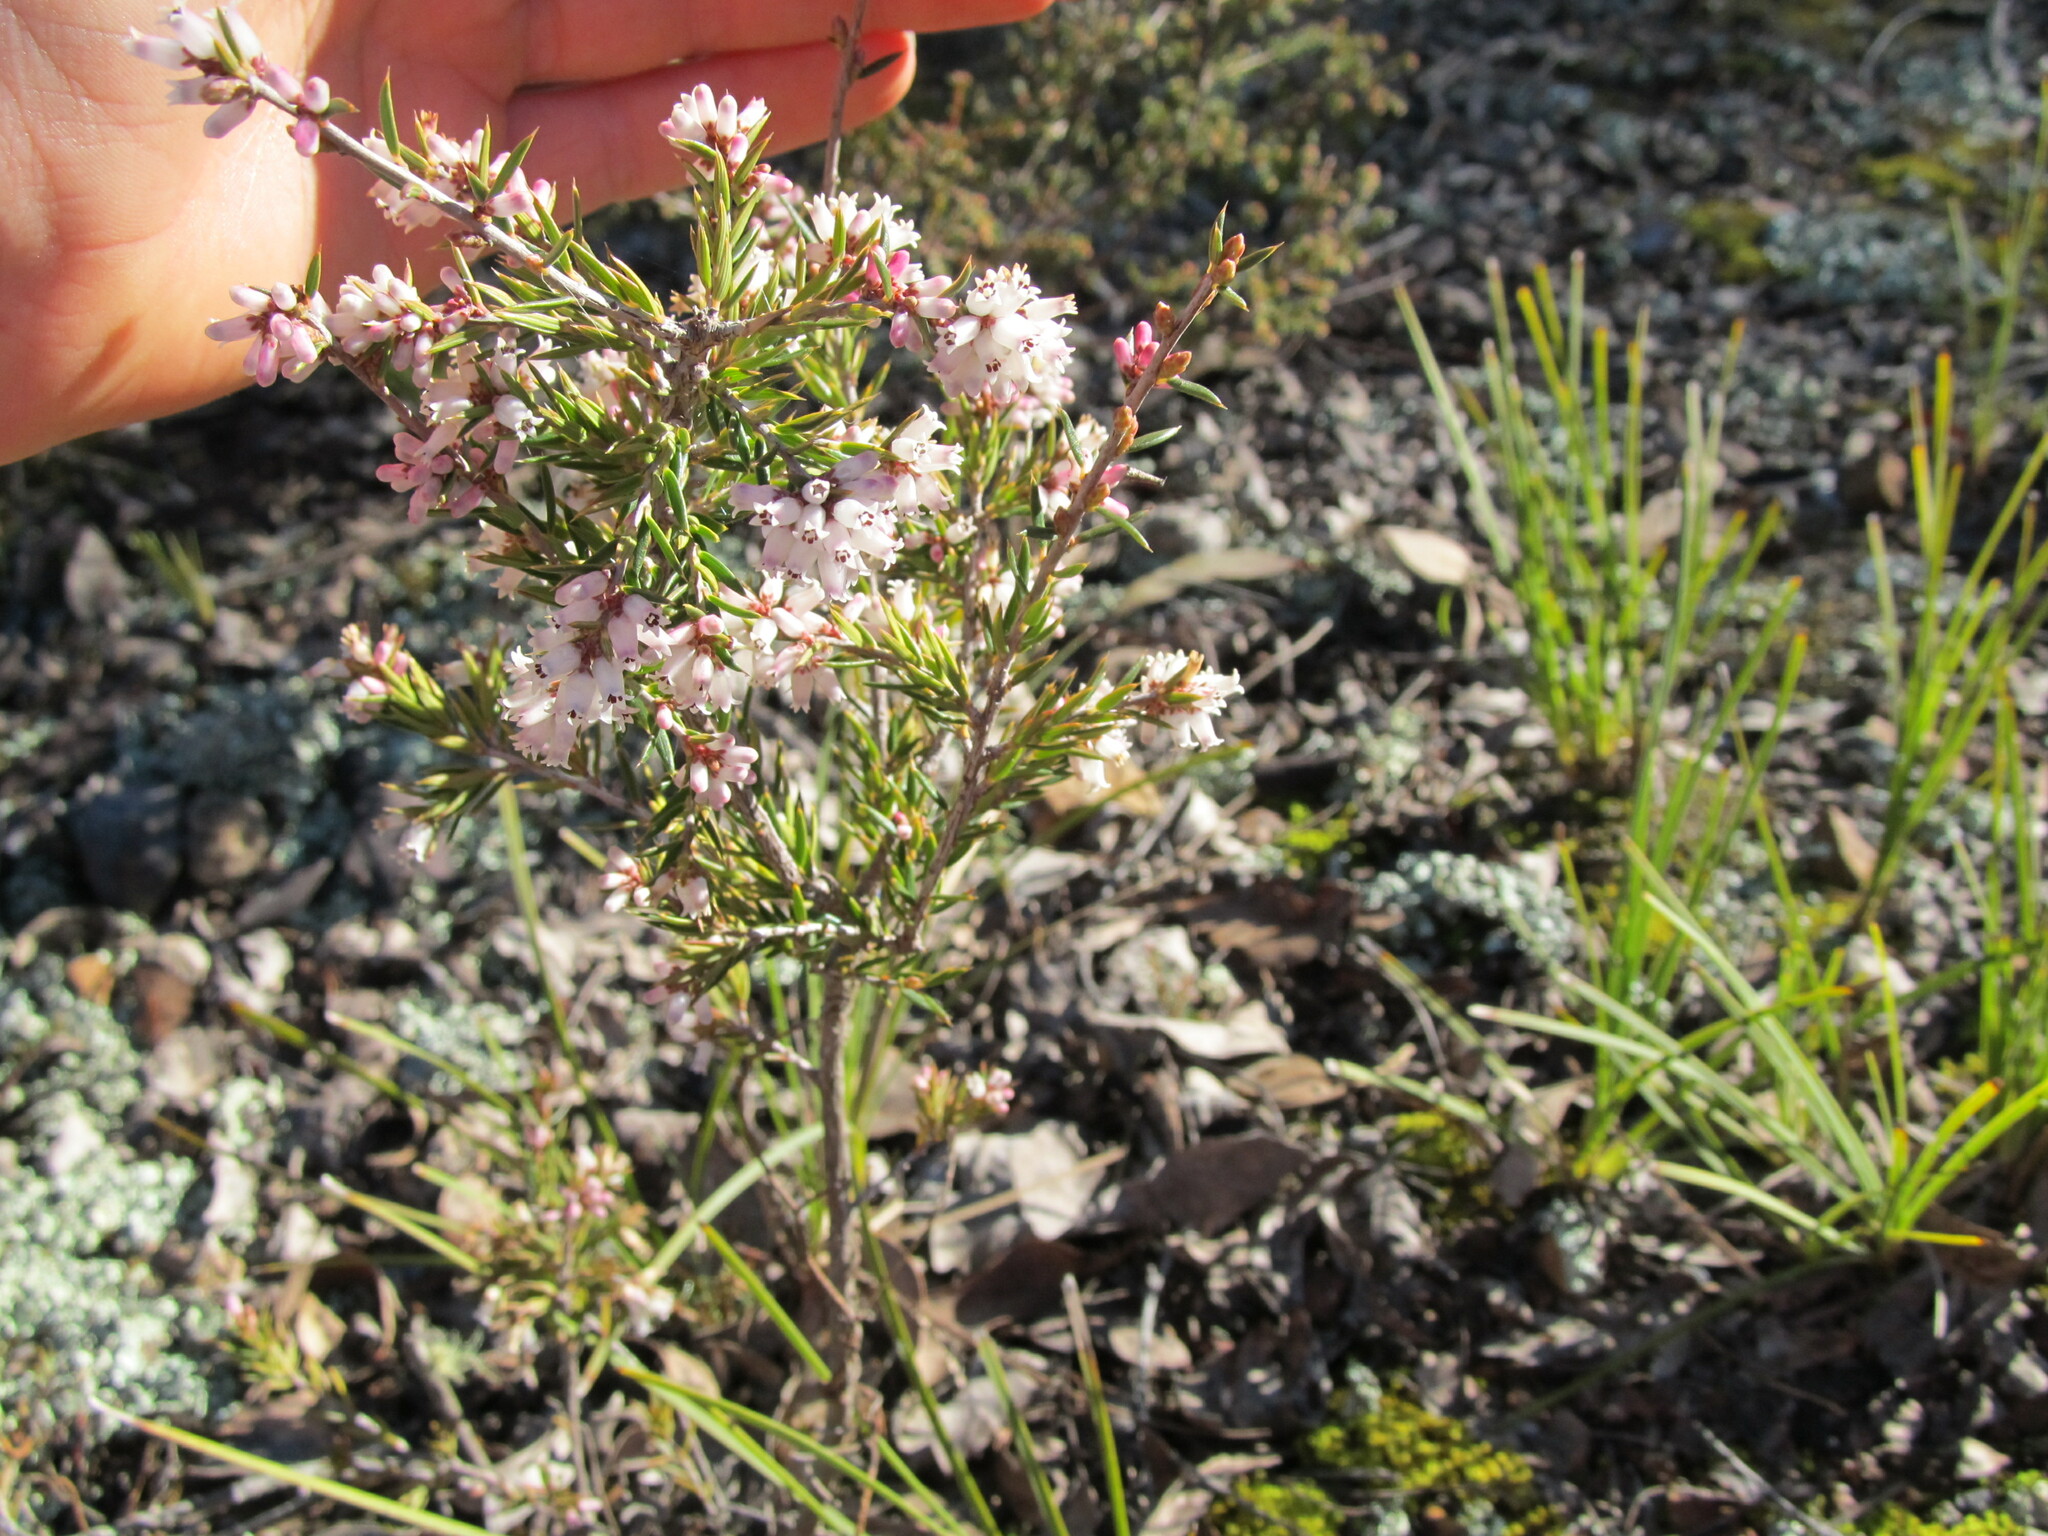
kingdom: Plantae
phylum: Tracheophyta
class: Magnoliopsida
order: Ericales
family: Ericaceae
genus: Lissanthe
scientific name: Lissanthe strigosa
